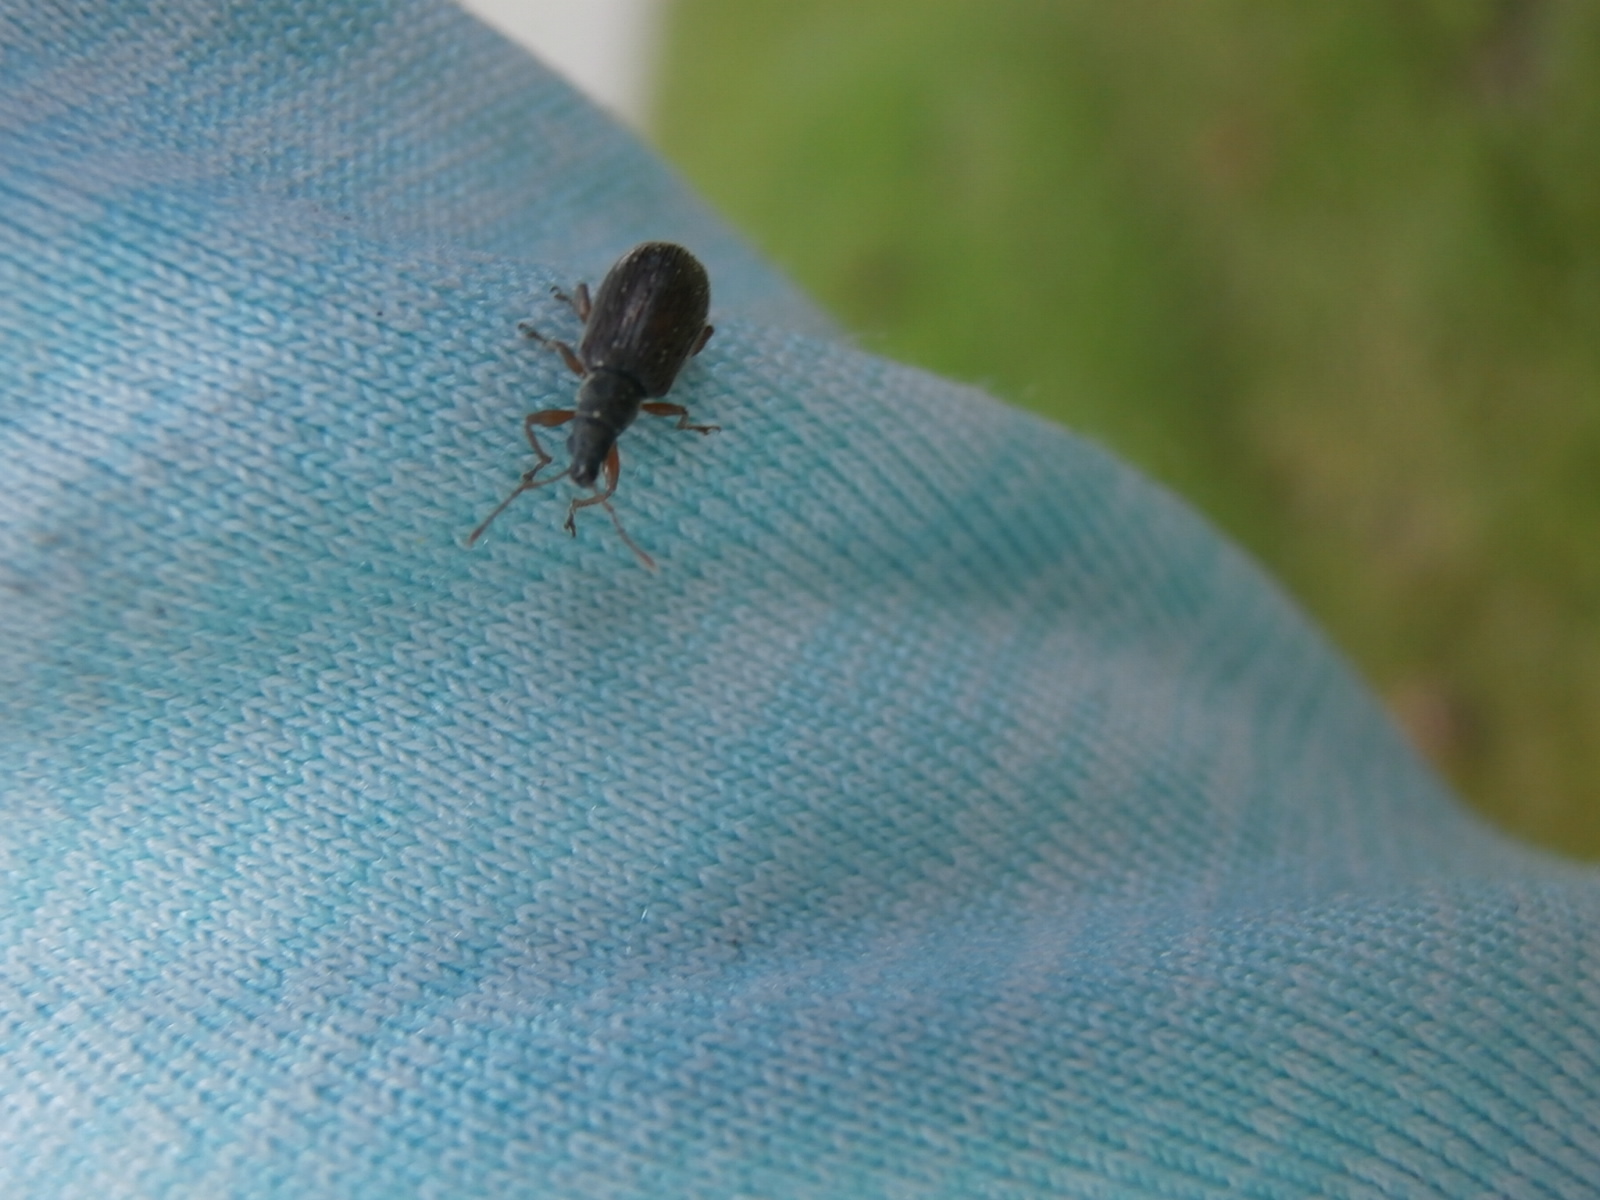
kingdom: Animalia
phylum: Arthropoda
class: Insecta
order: Coleoptera
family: Curculionidae
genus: Phyllobius
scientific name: Phyllobius oblongus
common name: Brown leaf weevil
